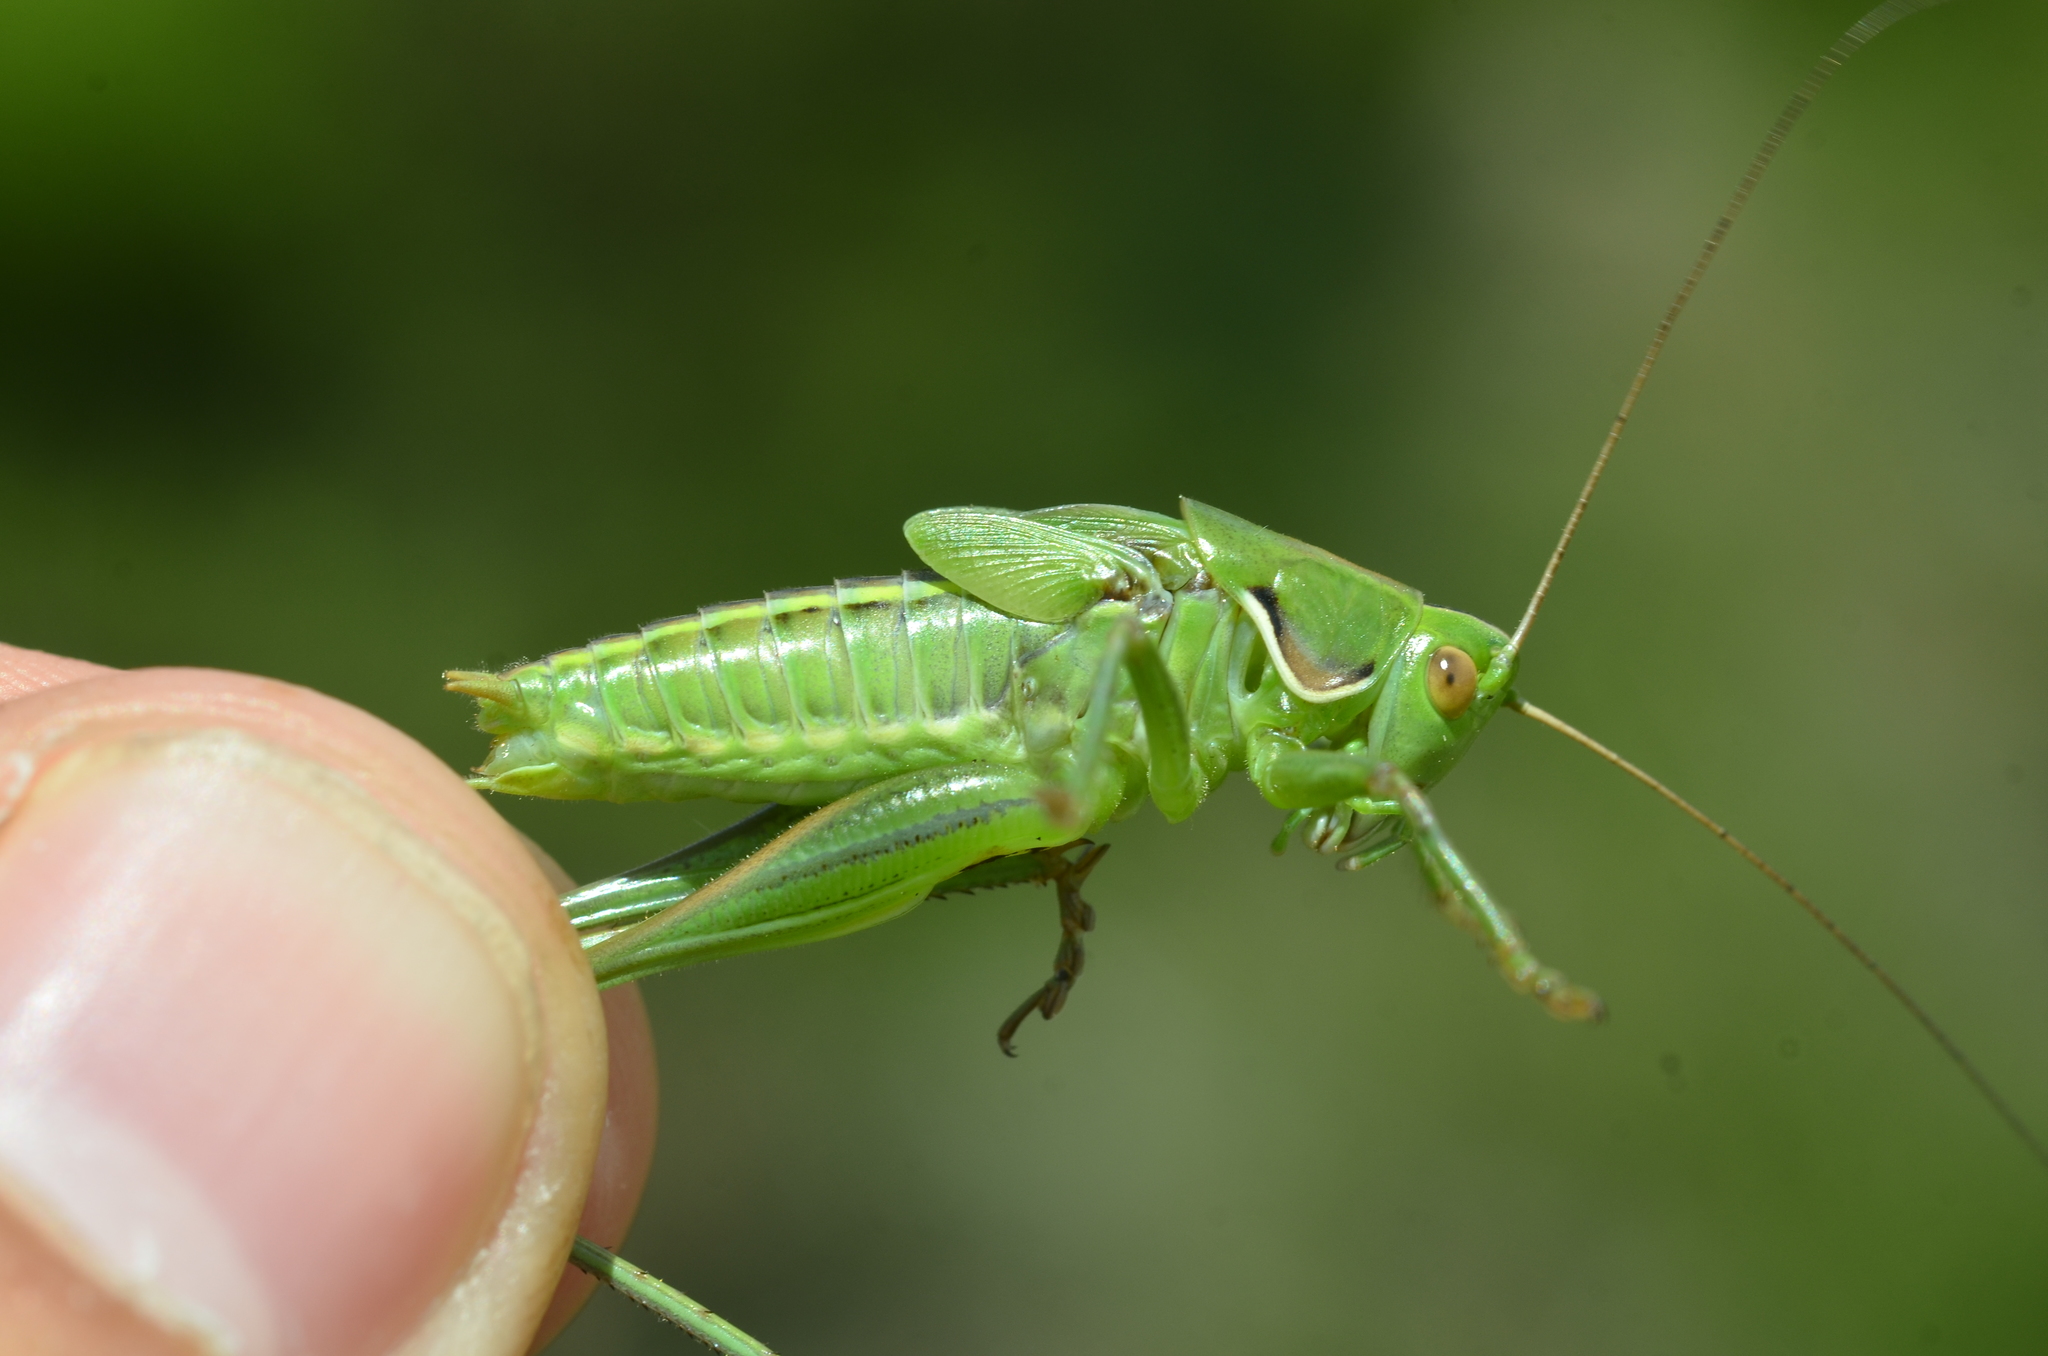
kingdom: Animalia
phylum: Arthropoda
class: Insecta
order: Orthoptera
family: Tettigoniidae
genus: Gampsocleis
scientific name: Gampsocleis glabra
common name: Heath bushcricket
